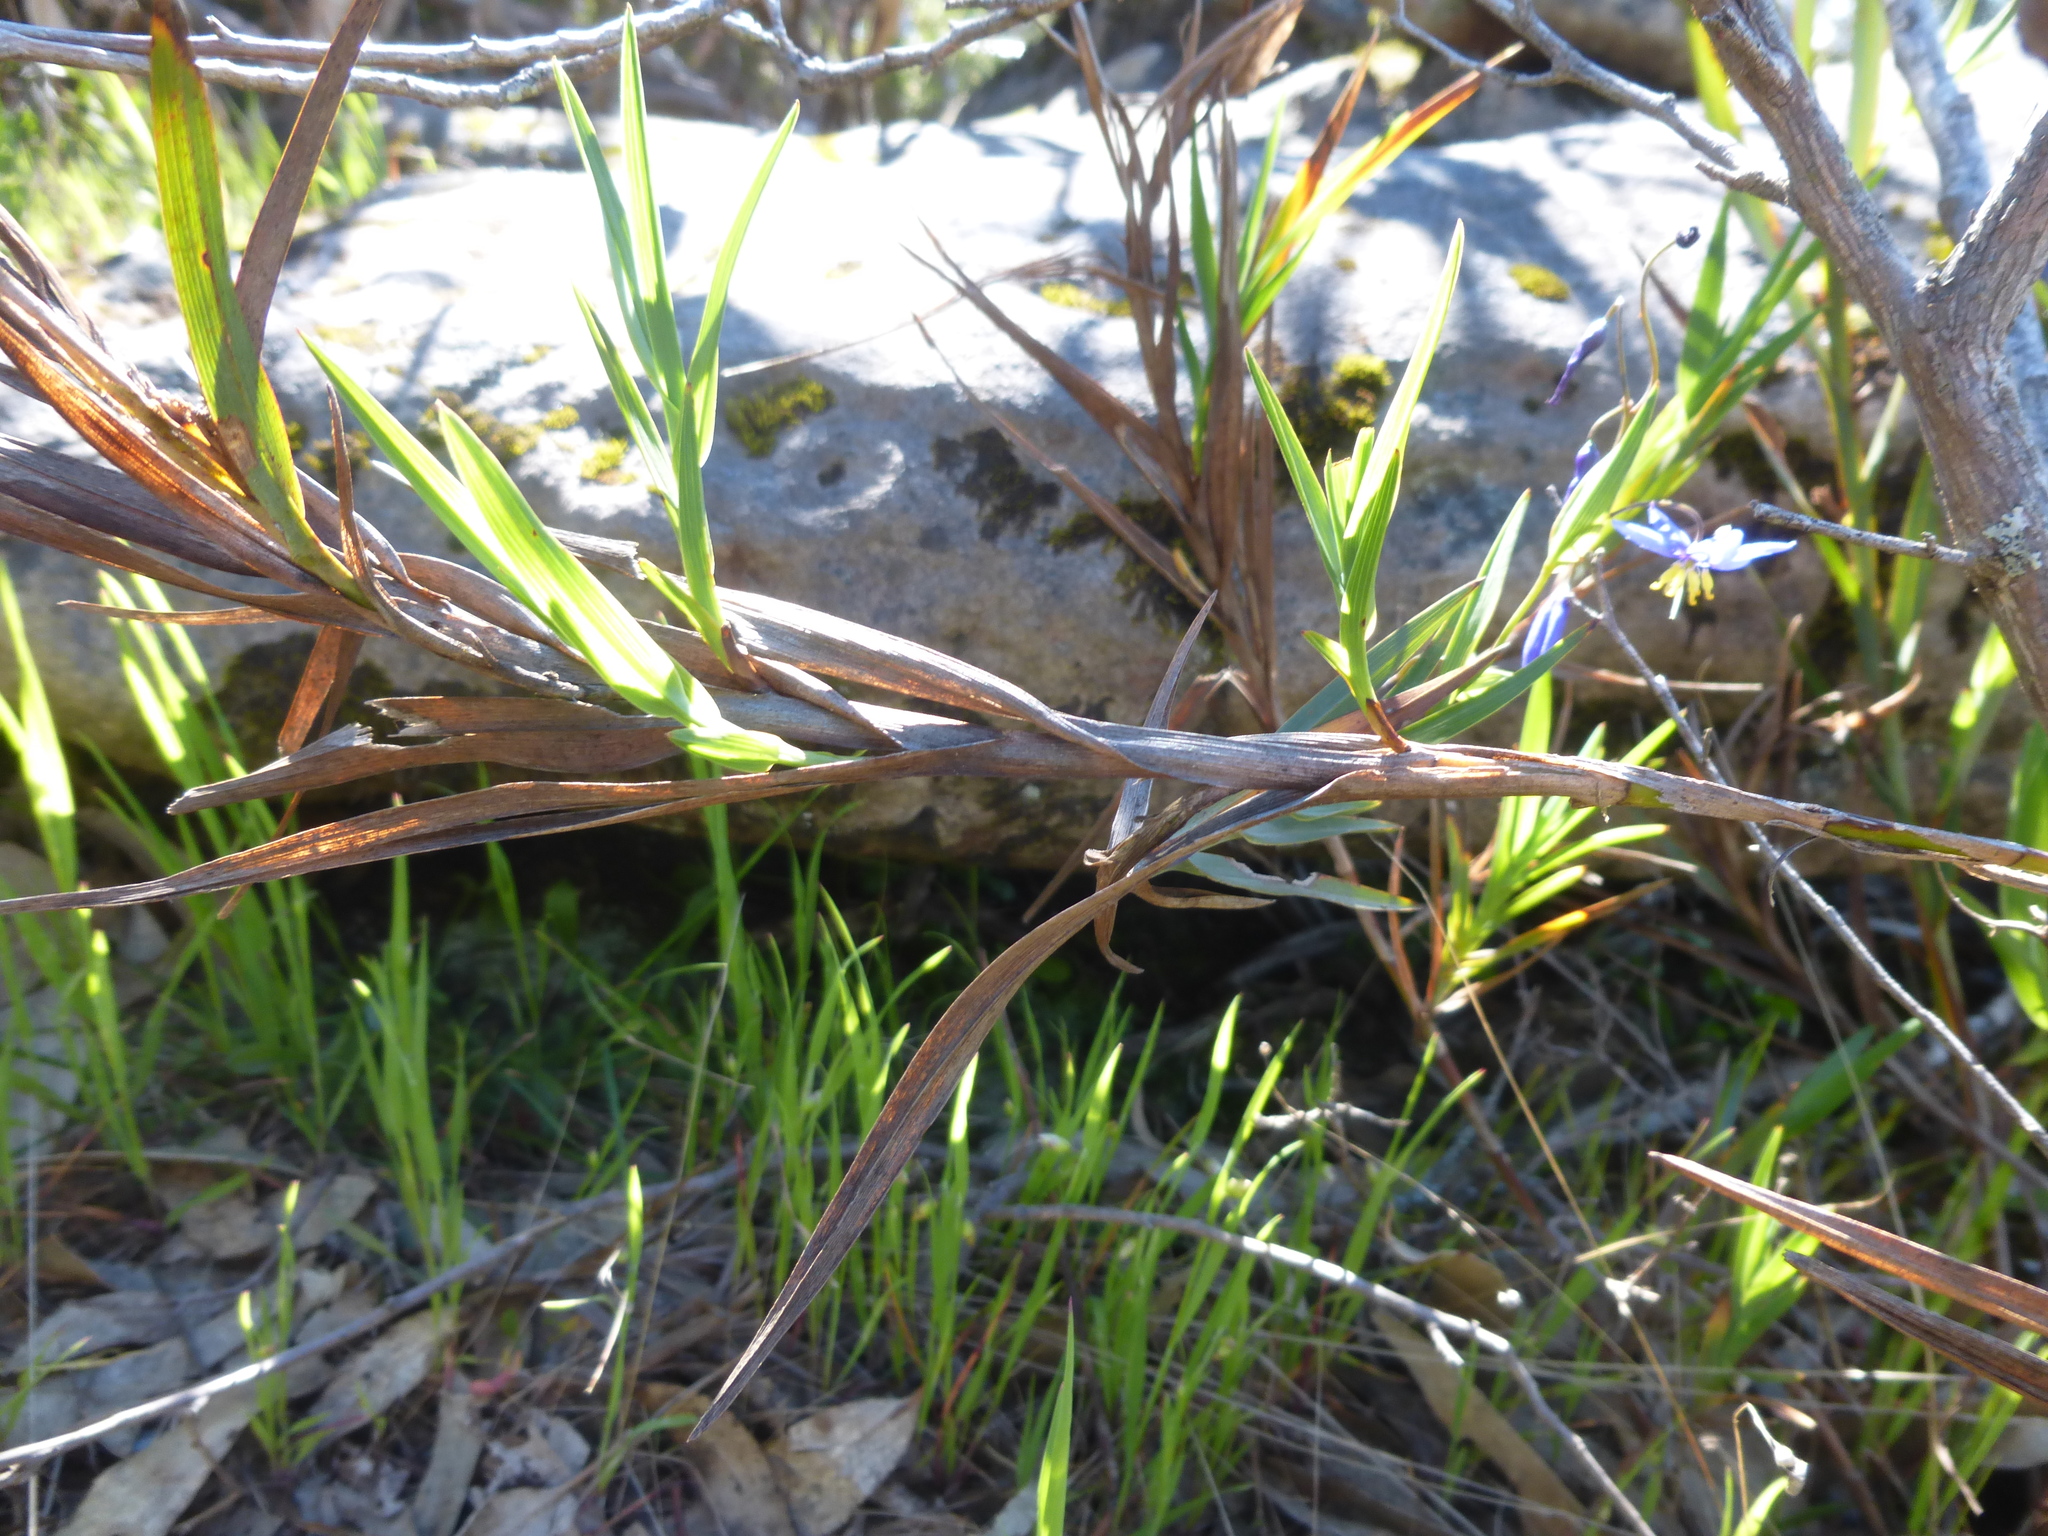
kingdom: Plantae
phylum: Tracheophyta
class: Liliopsida
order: Asparagales
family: Asphodelaceae
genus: Stypandra
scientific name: Stypandra glauca
